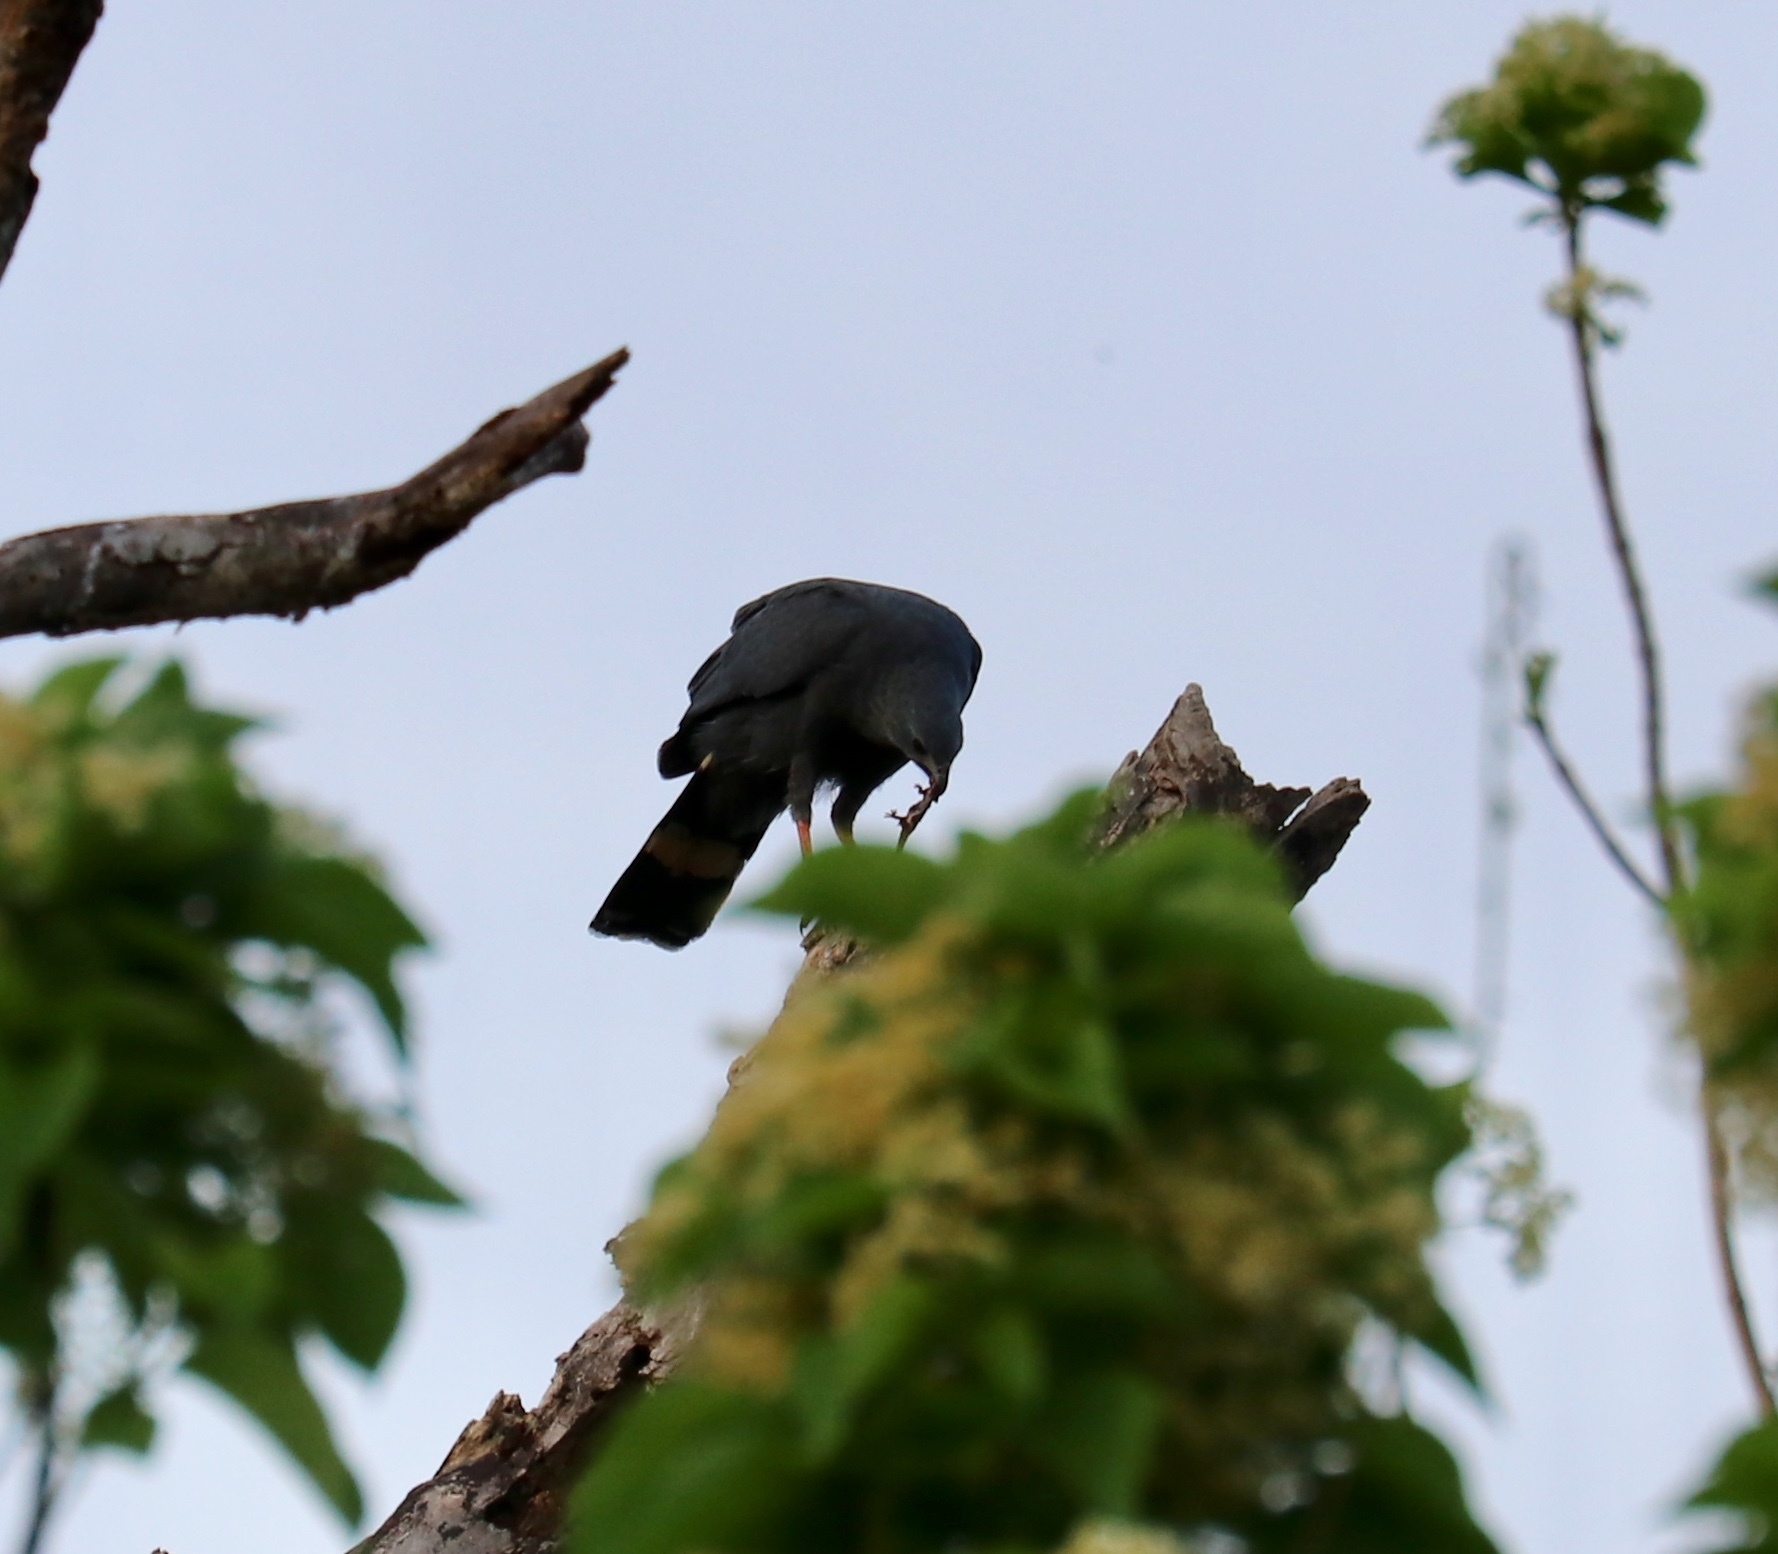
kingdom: Animalia
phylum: Chordata
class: Aves
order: Accipitriformes
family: Accipitridae
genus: Geranospiza
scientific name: Geranospiza caerulescens
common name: Crane hawk
